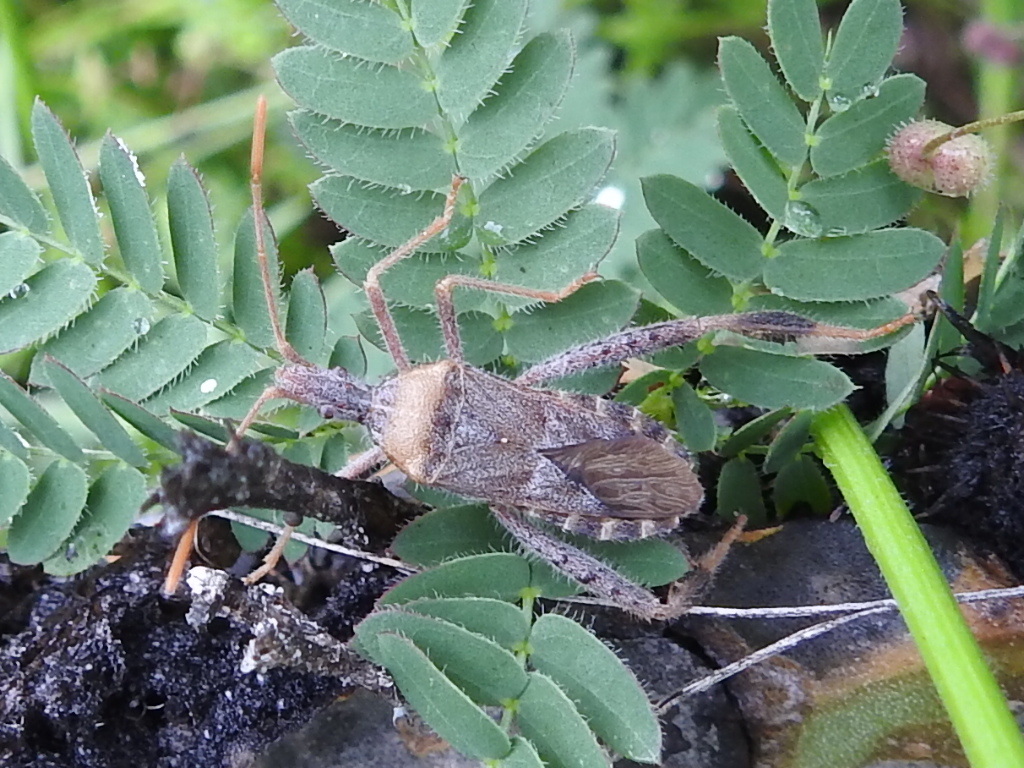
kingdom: Animalia
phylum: Arthropoda
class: Insecta
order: Hemiptera
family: Coreidae
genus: Narnia
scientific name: Narnia femorata
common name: Leaf-footed cactus bug
